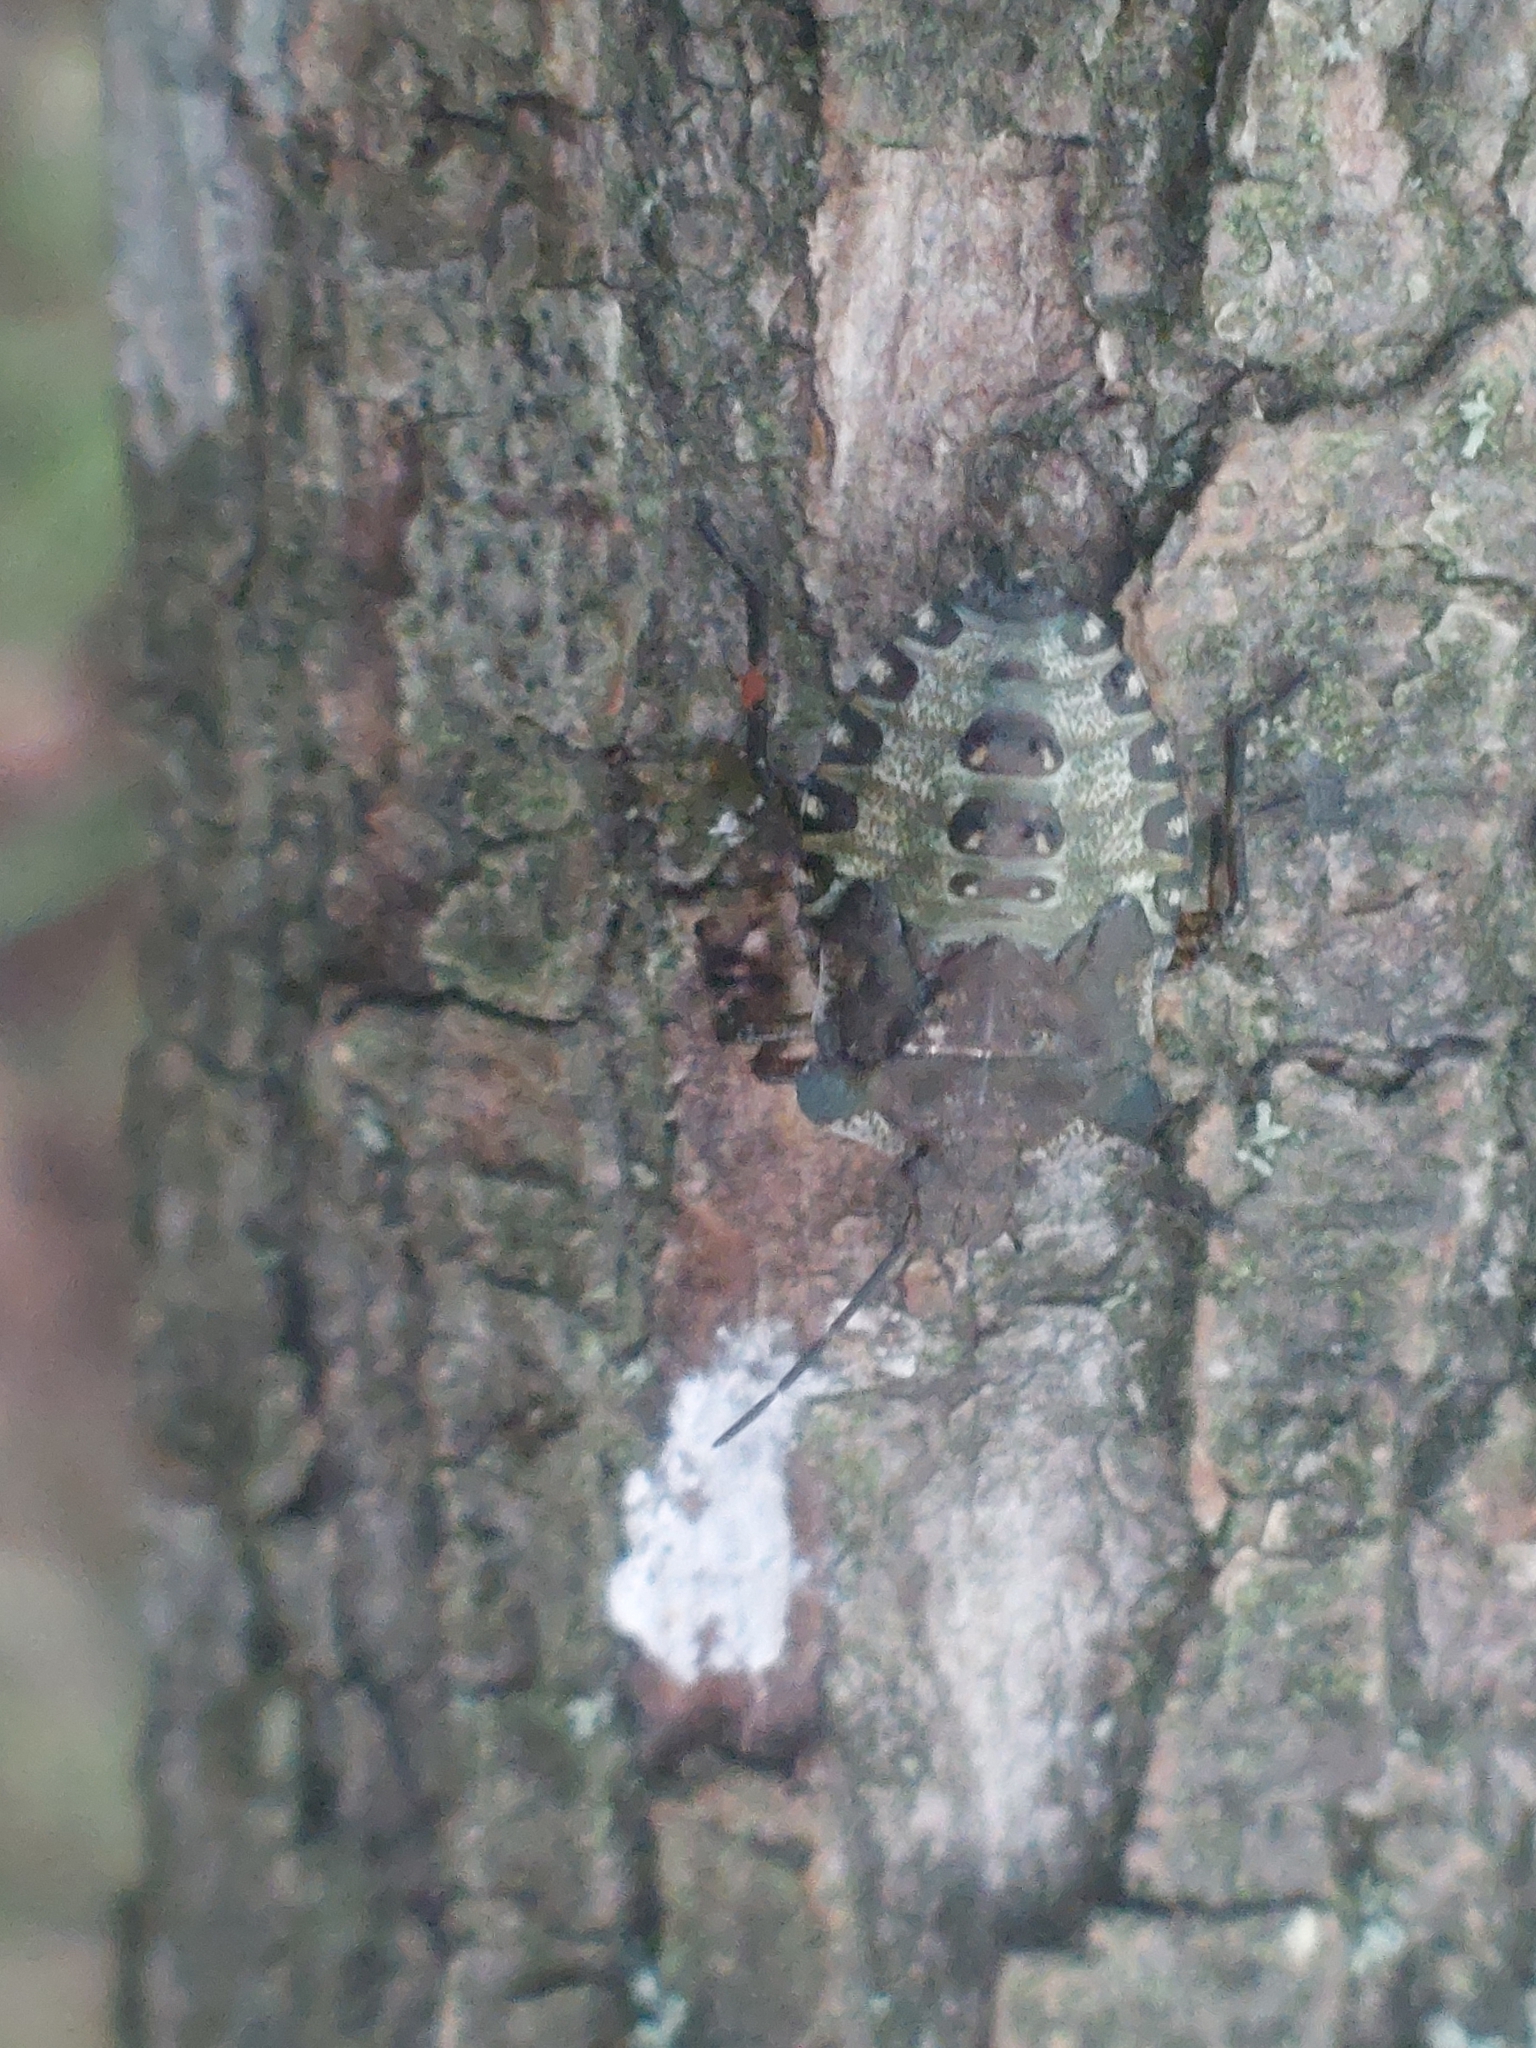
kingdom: Animalia
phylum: Arthropoda
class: Insecta
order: Hemiptera
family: Pentatomidae
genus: Pentatoma
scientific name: Pentatoma rufipes
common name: Forest bug
